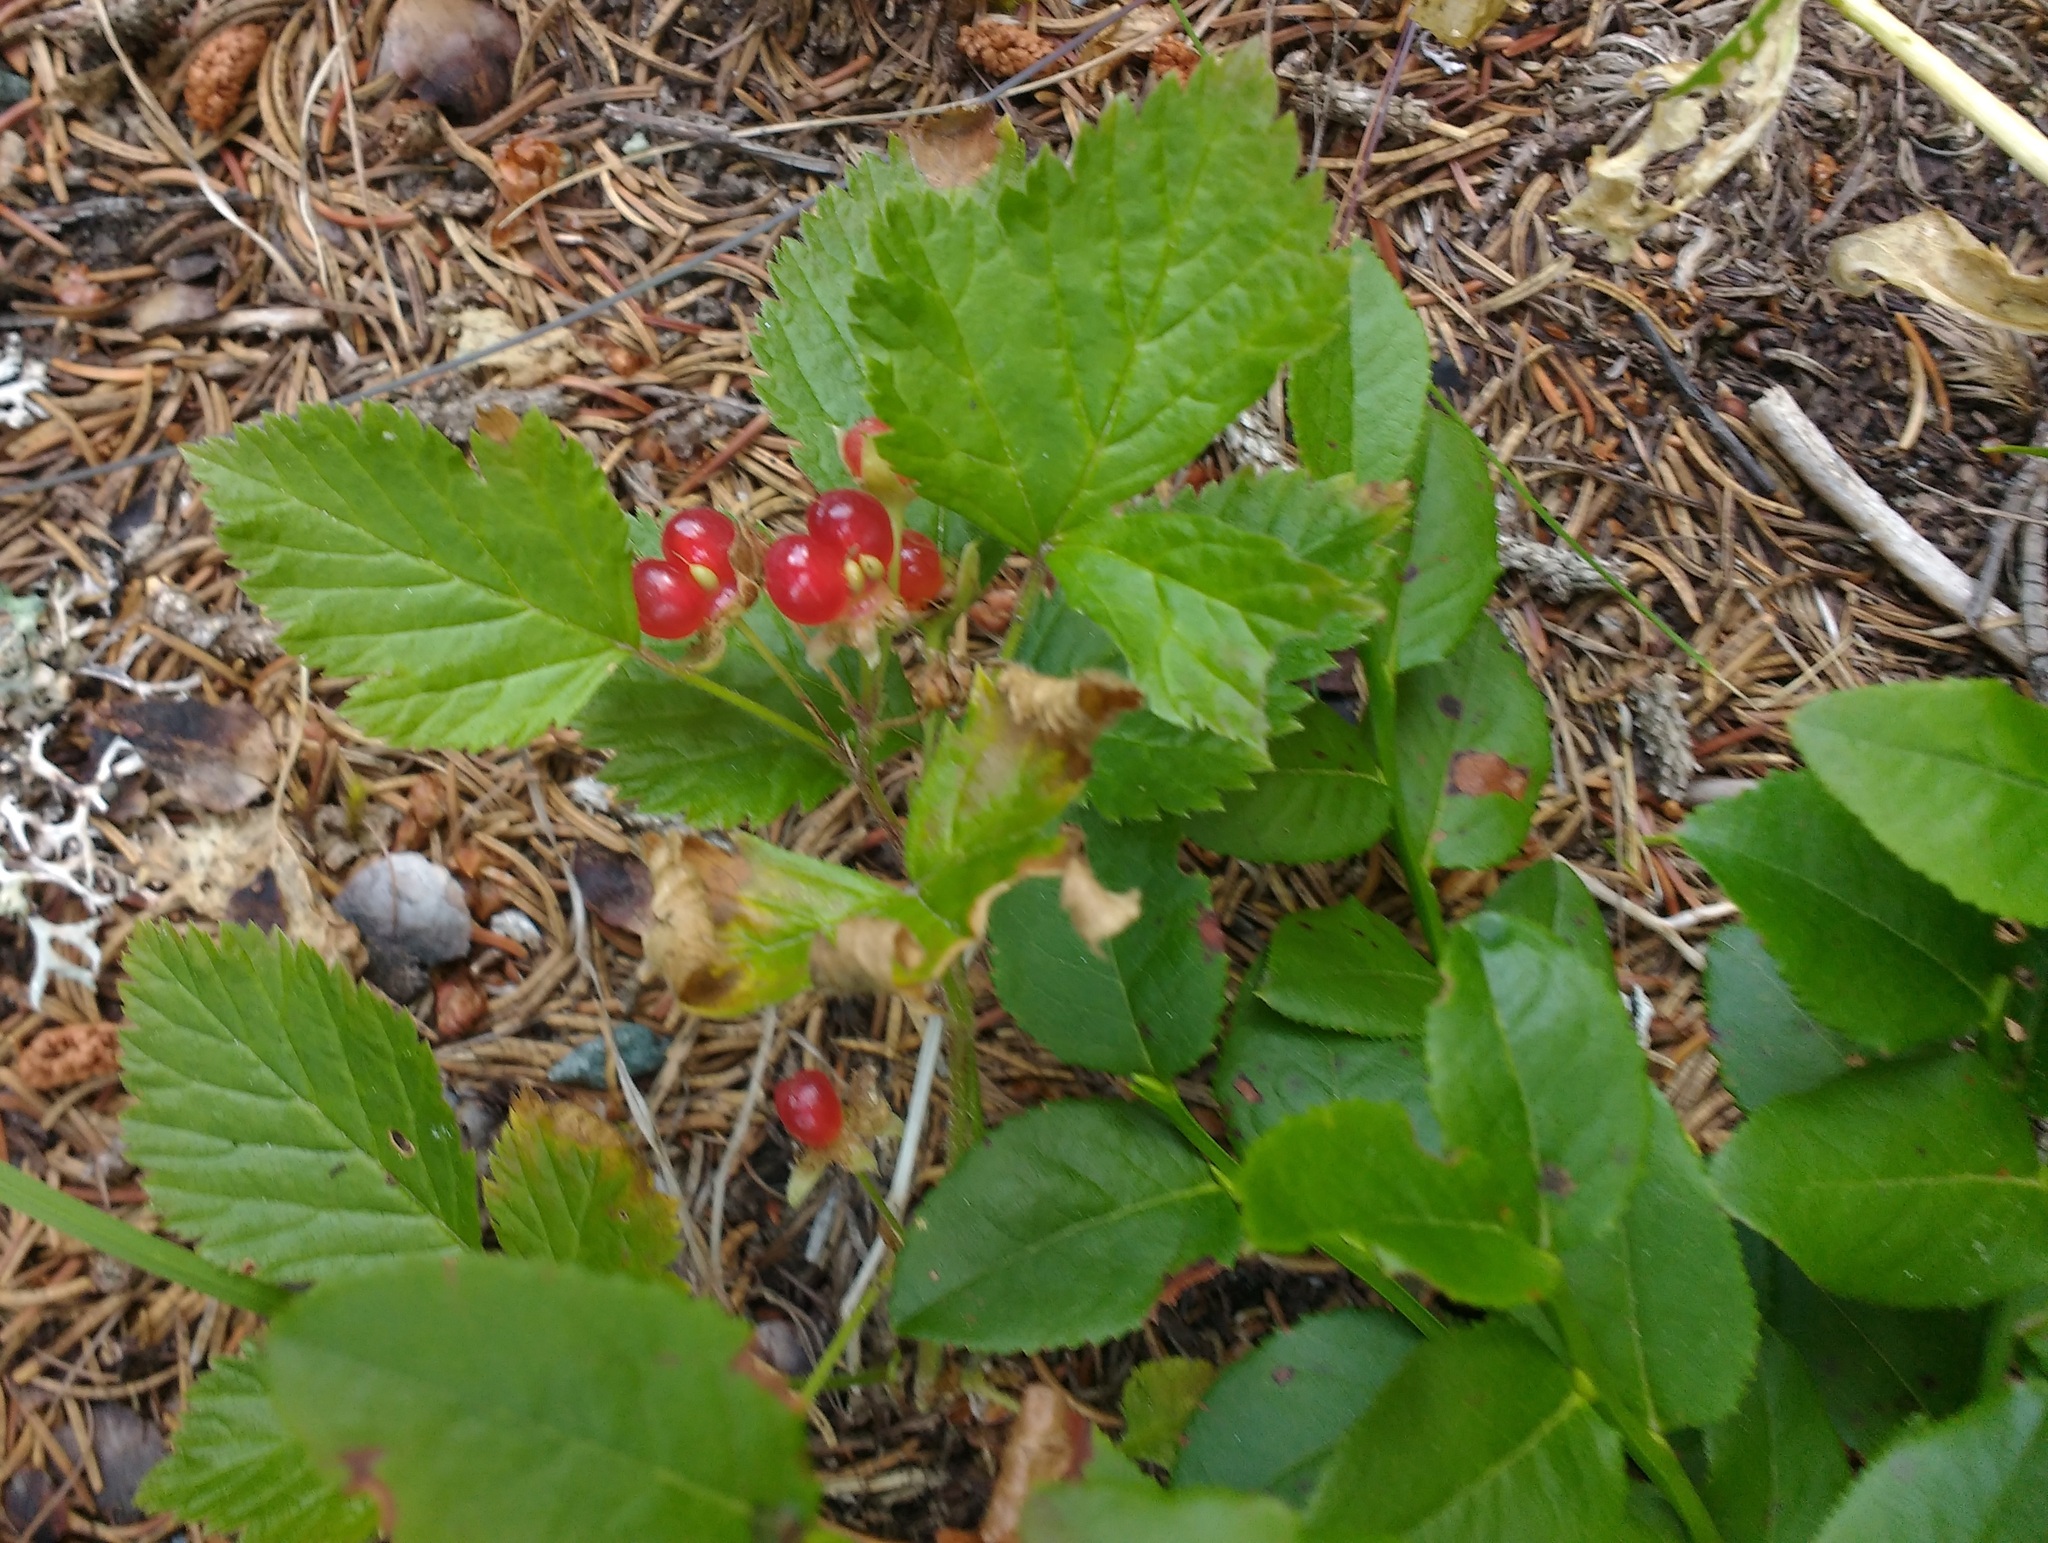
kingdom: Plantae
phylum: Tracheophyta
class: Magnoliopsida
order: Rosales
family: Rosaceae
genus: Rubus
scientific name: Rubus saxatilis
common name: Stone bramble
